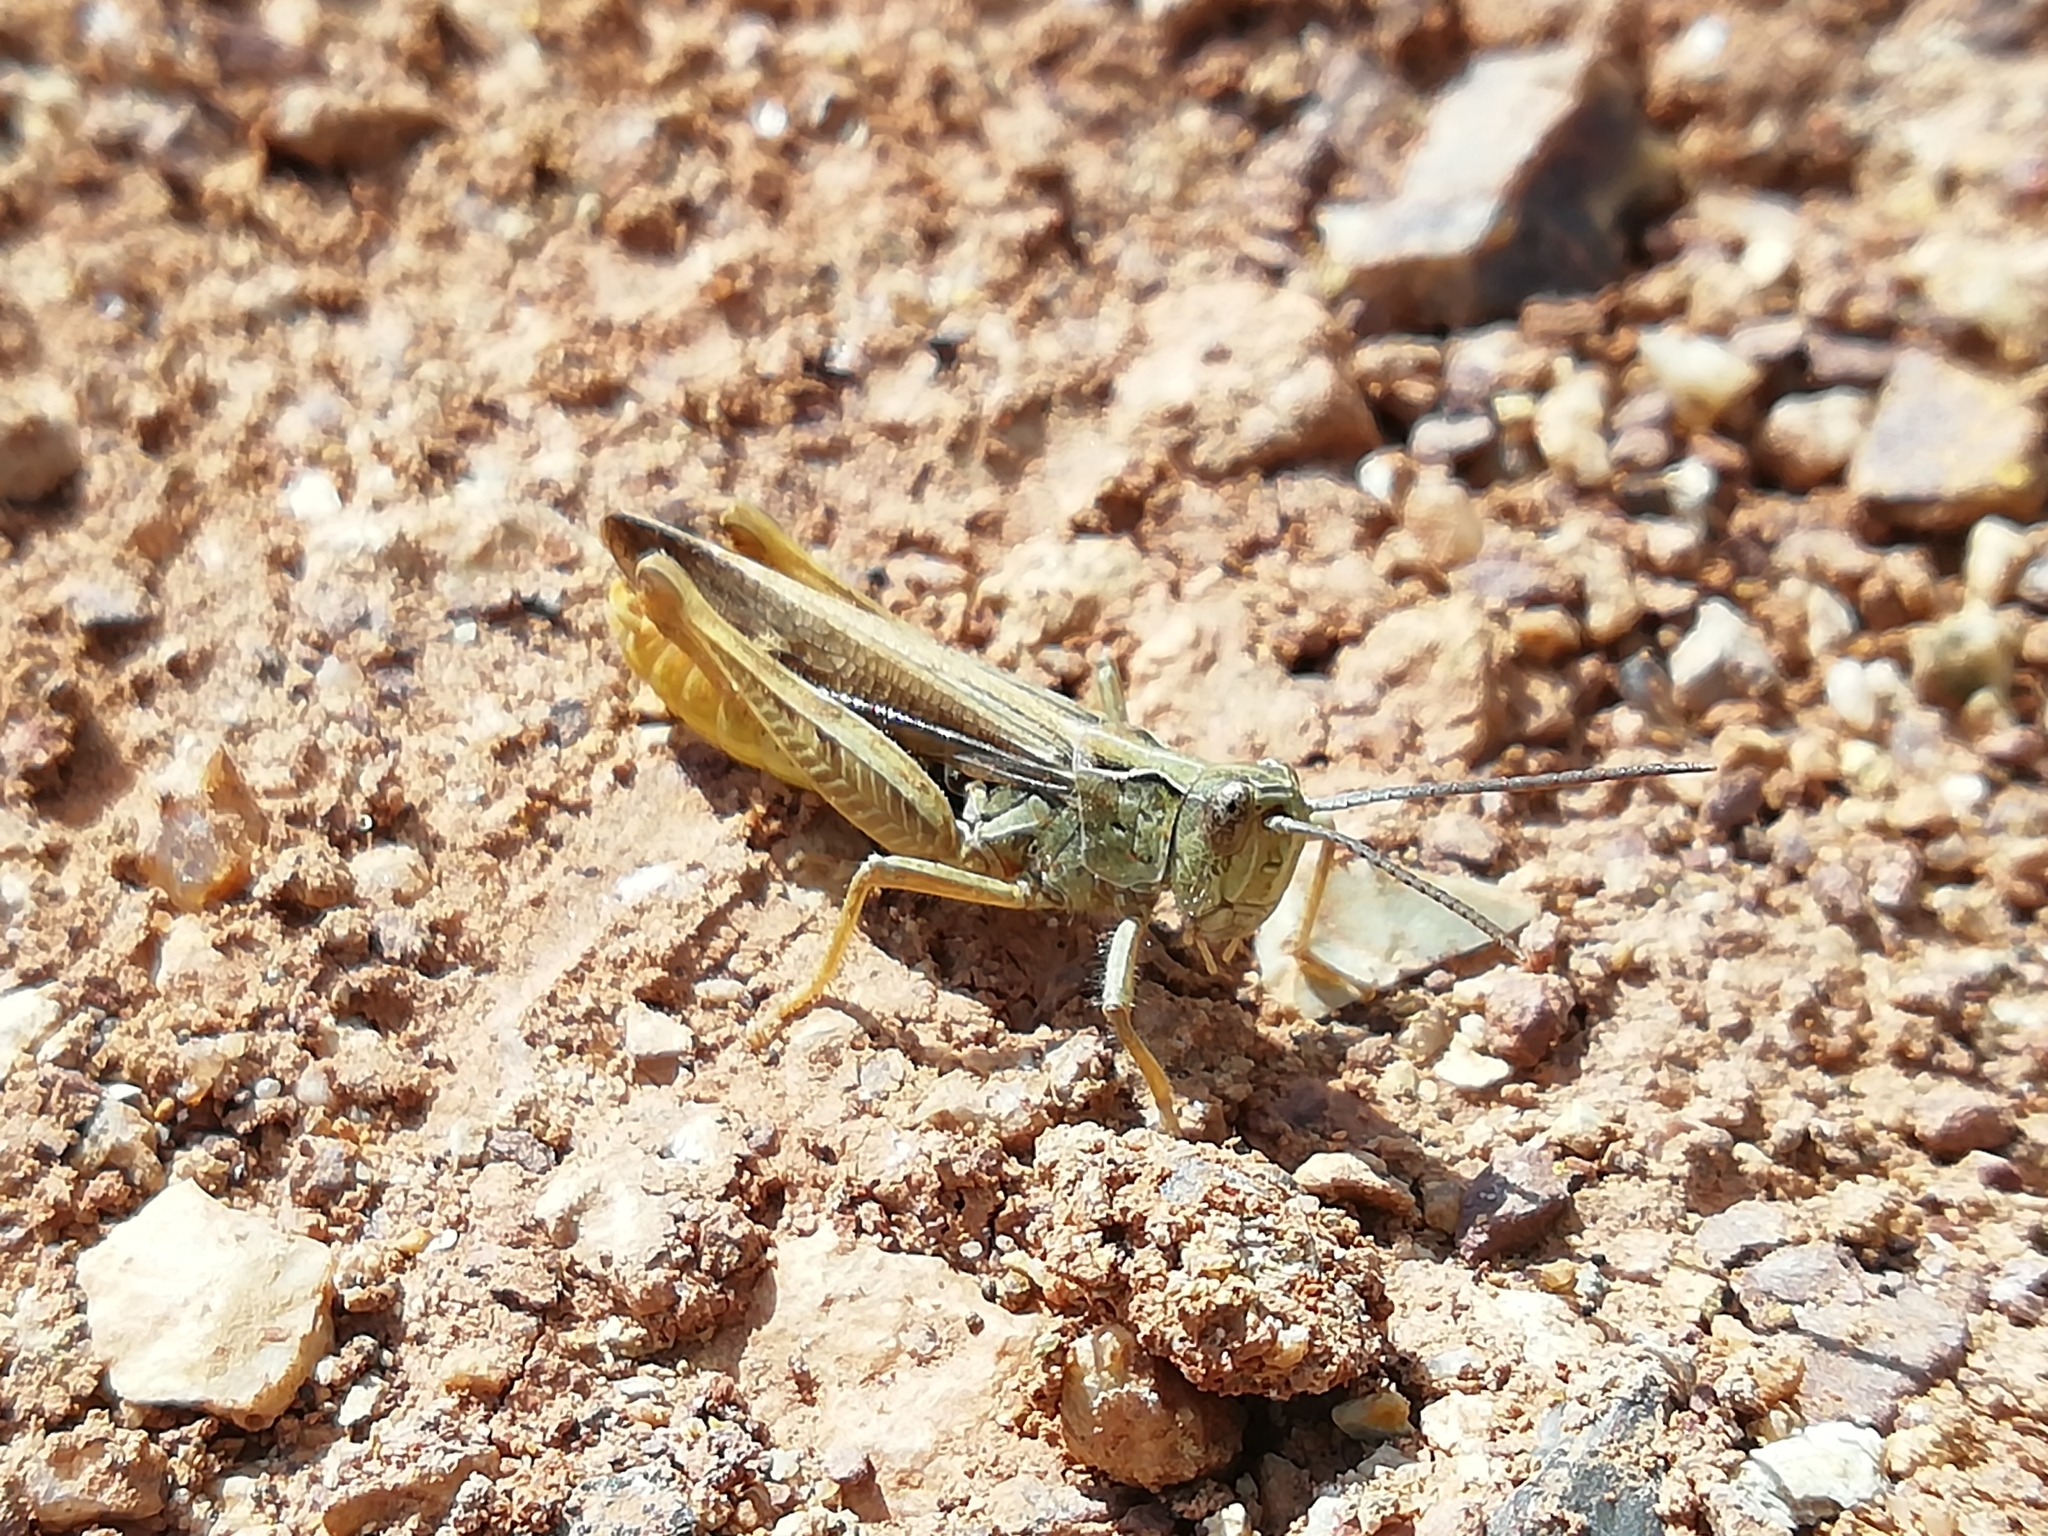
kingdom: Animalia
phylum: Arthropoda
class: Insecta
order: Orthoptera
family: Acrididae
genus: Chorthippus
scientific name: Chorthippus miramae
